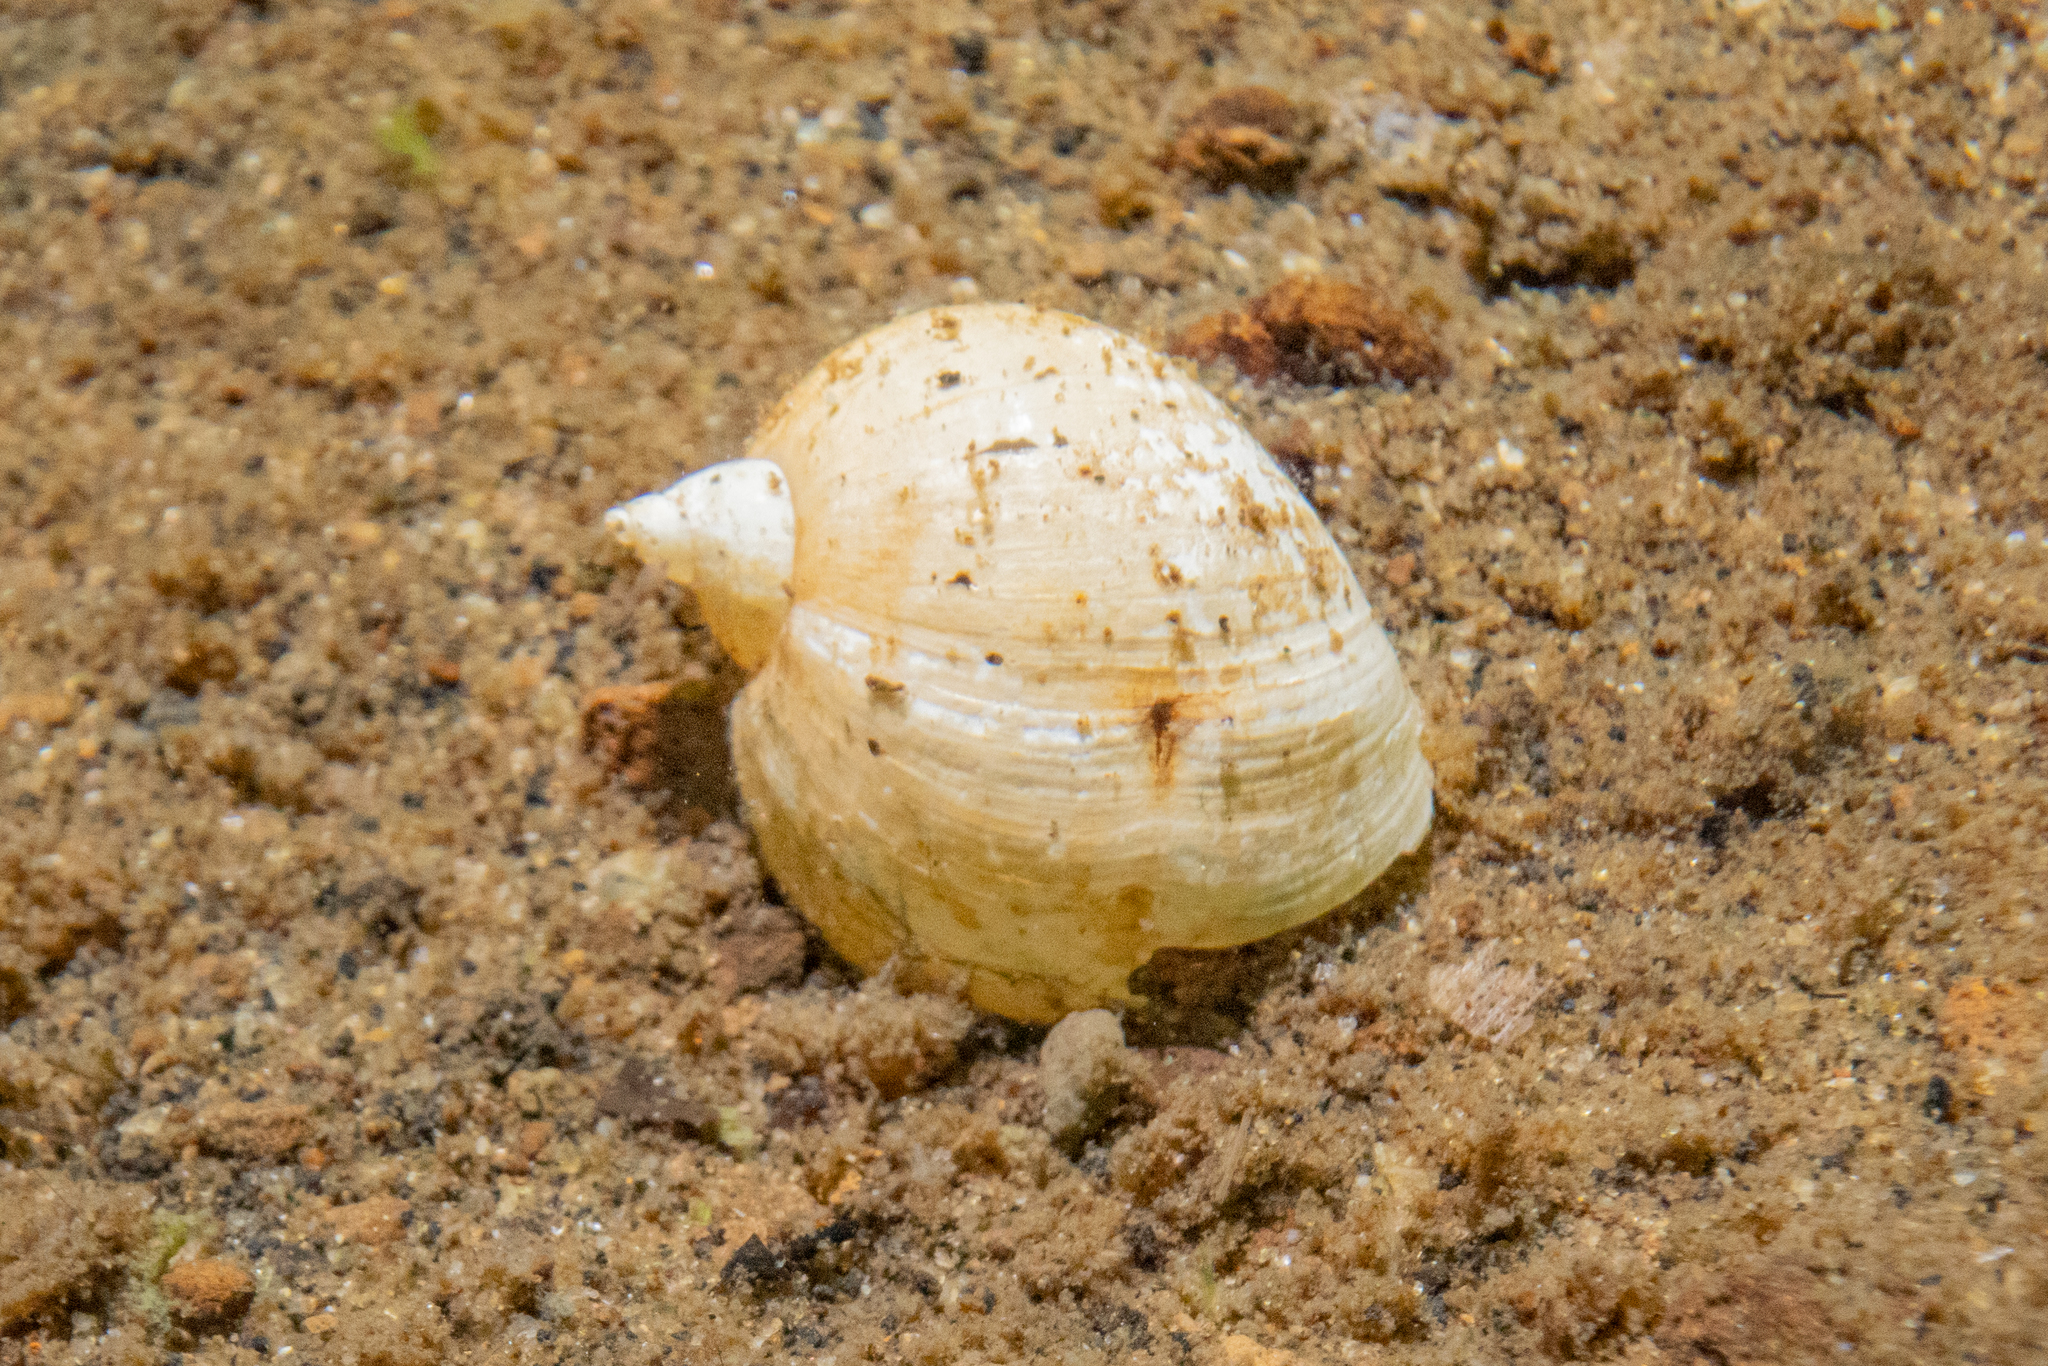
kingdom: Animalia
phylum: Mollusca
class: Gastropoda
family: Lymnaeidae
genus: Radix
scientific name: Radix auricularia
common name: Ear pond snail
